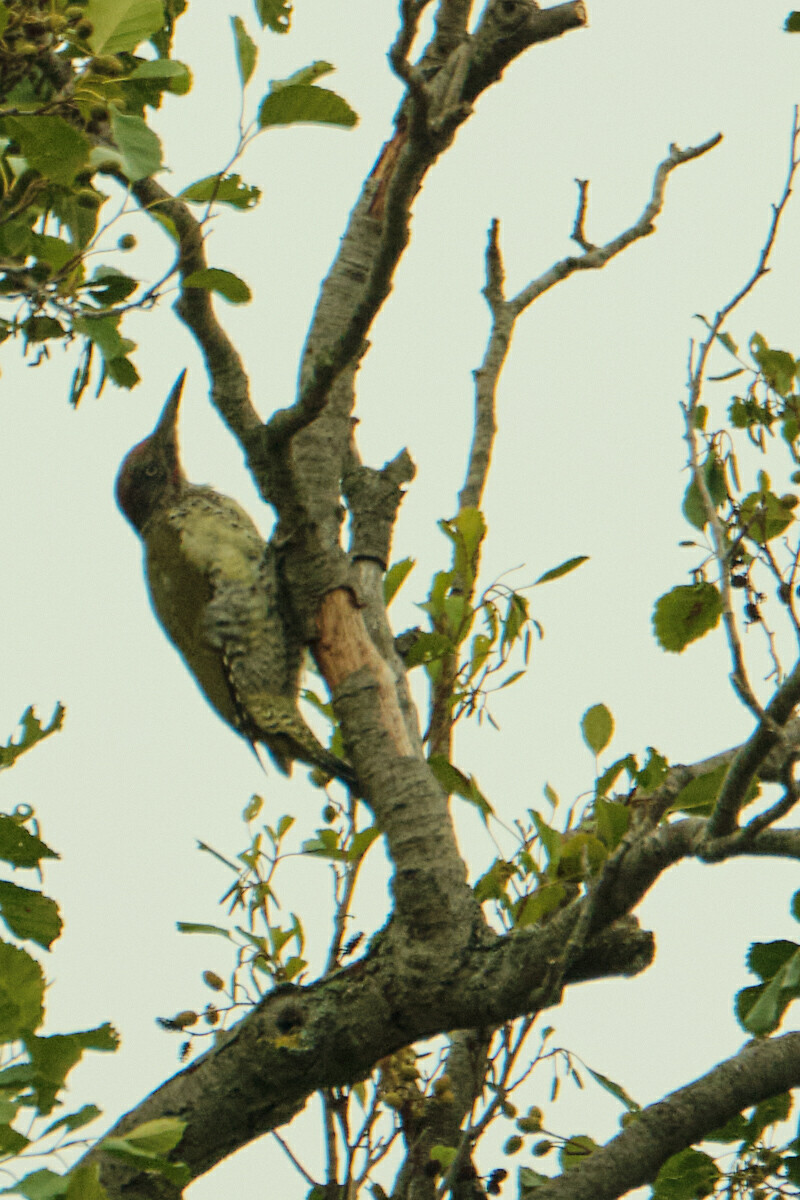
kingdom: Animalia
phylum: Chordata
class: Aves
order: Piciformes
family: Picidae
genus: Picus
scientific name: Picus viridis
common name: European green woodpecker
